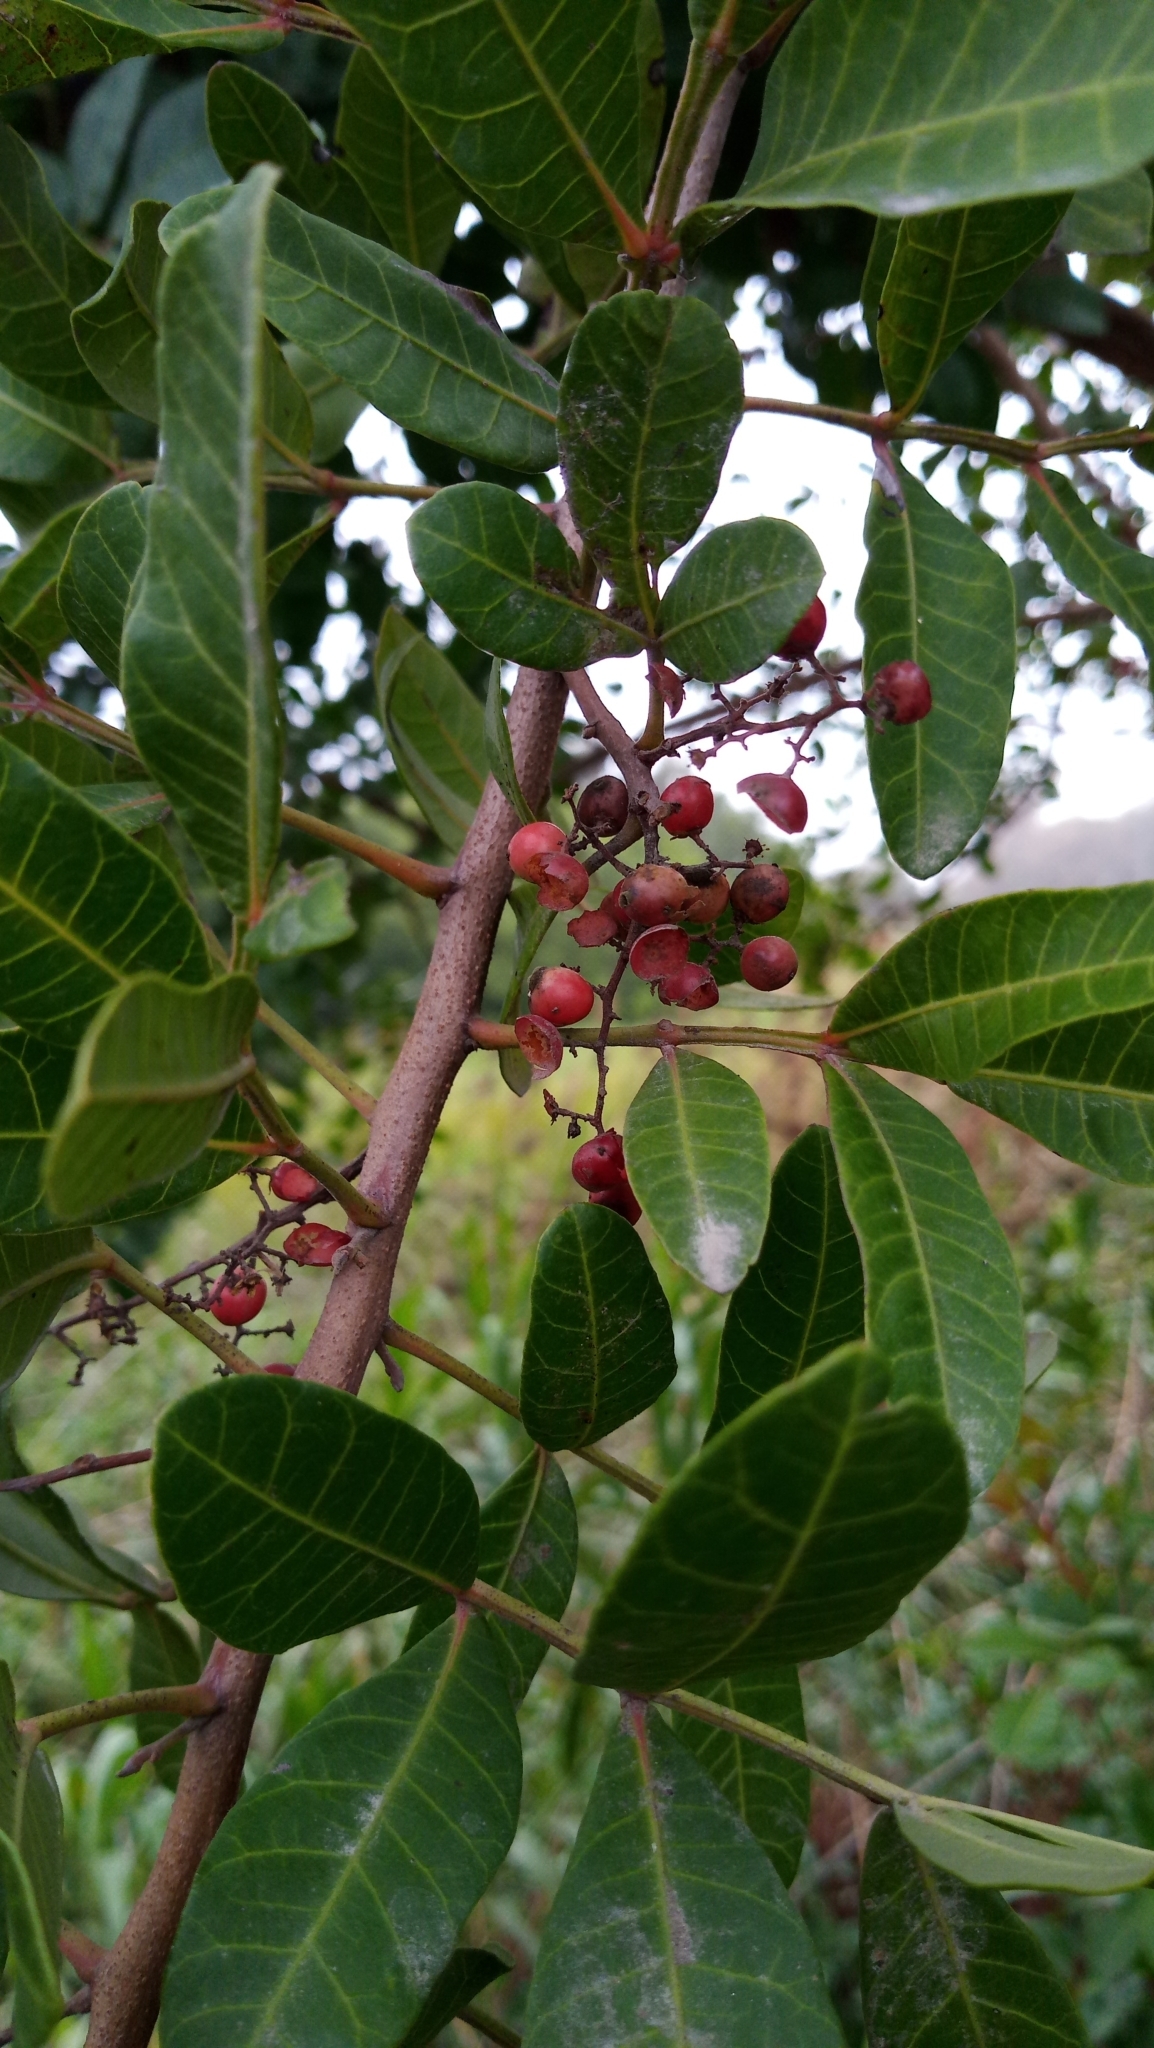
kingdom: Plantae
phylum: Tracheophyta
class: Magnoliopsida
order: Sapindales
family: Anacardiaceae
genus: Schinus
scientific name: Schinus terebinthifolia
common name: Brazilian peppertree
